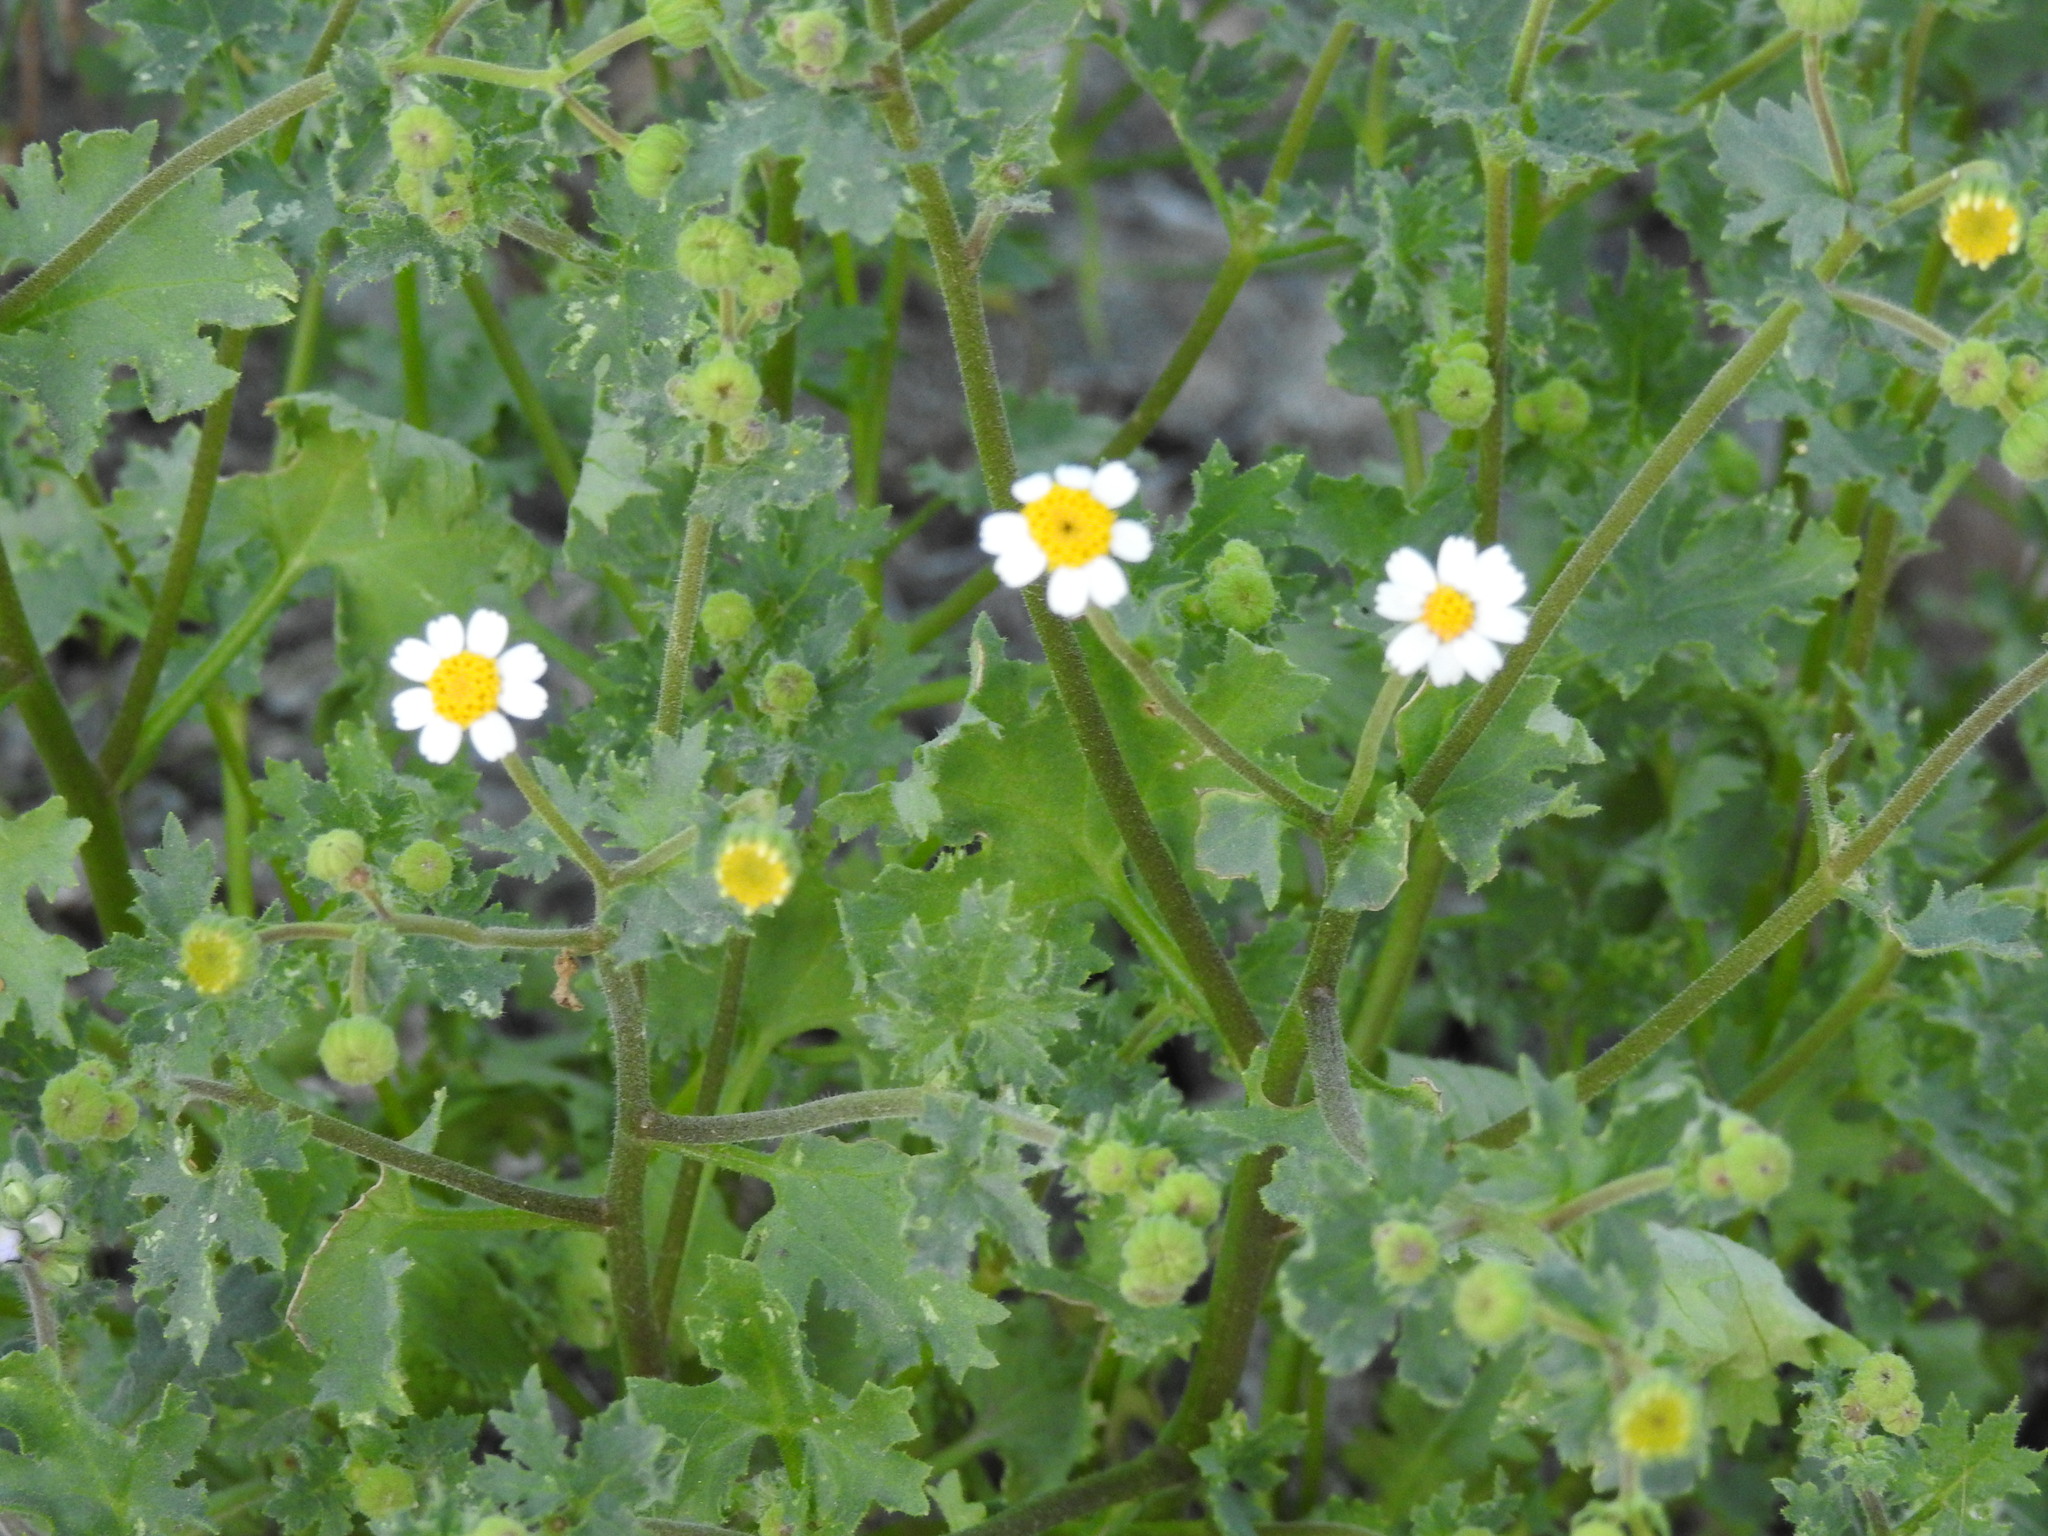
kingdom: Plantae
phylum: Tracheophyta
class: Magnoliopsida
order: Asterales
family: Asteraceae
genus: Laphamia
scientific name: Laphamia emoryi
